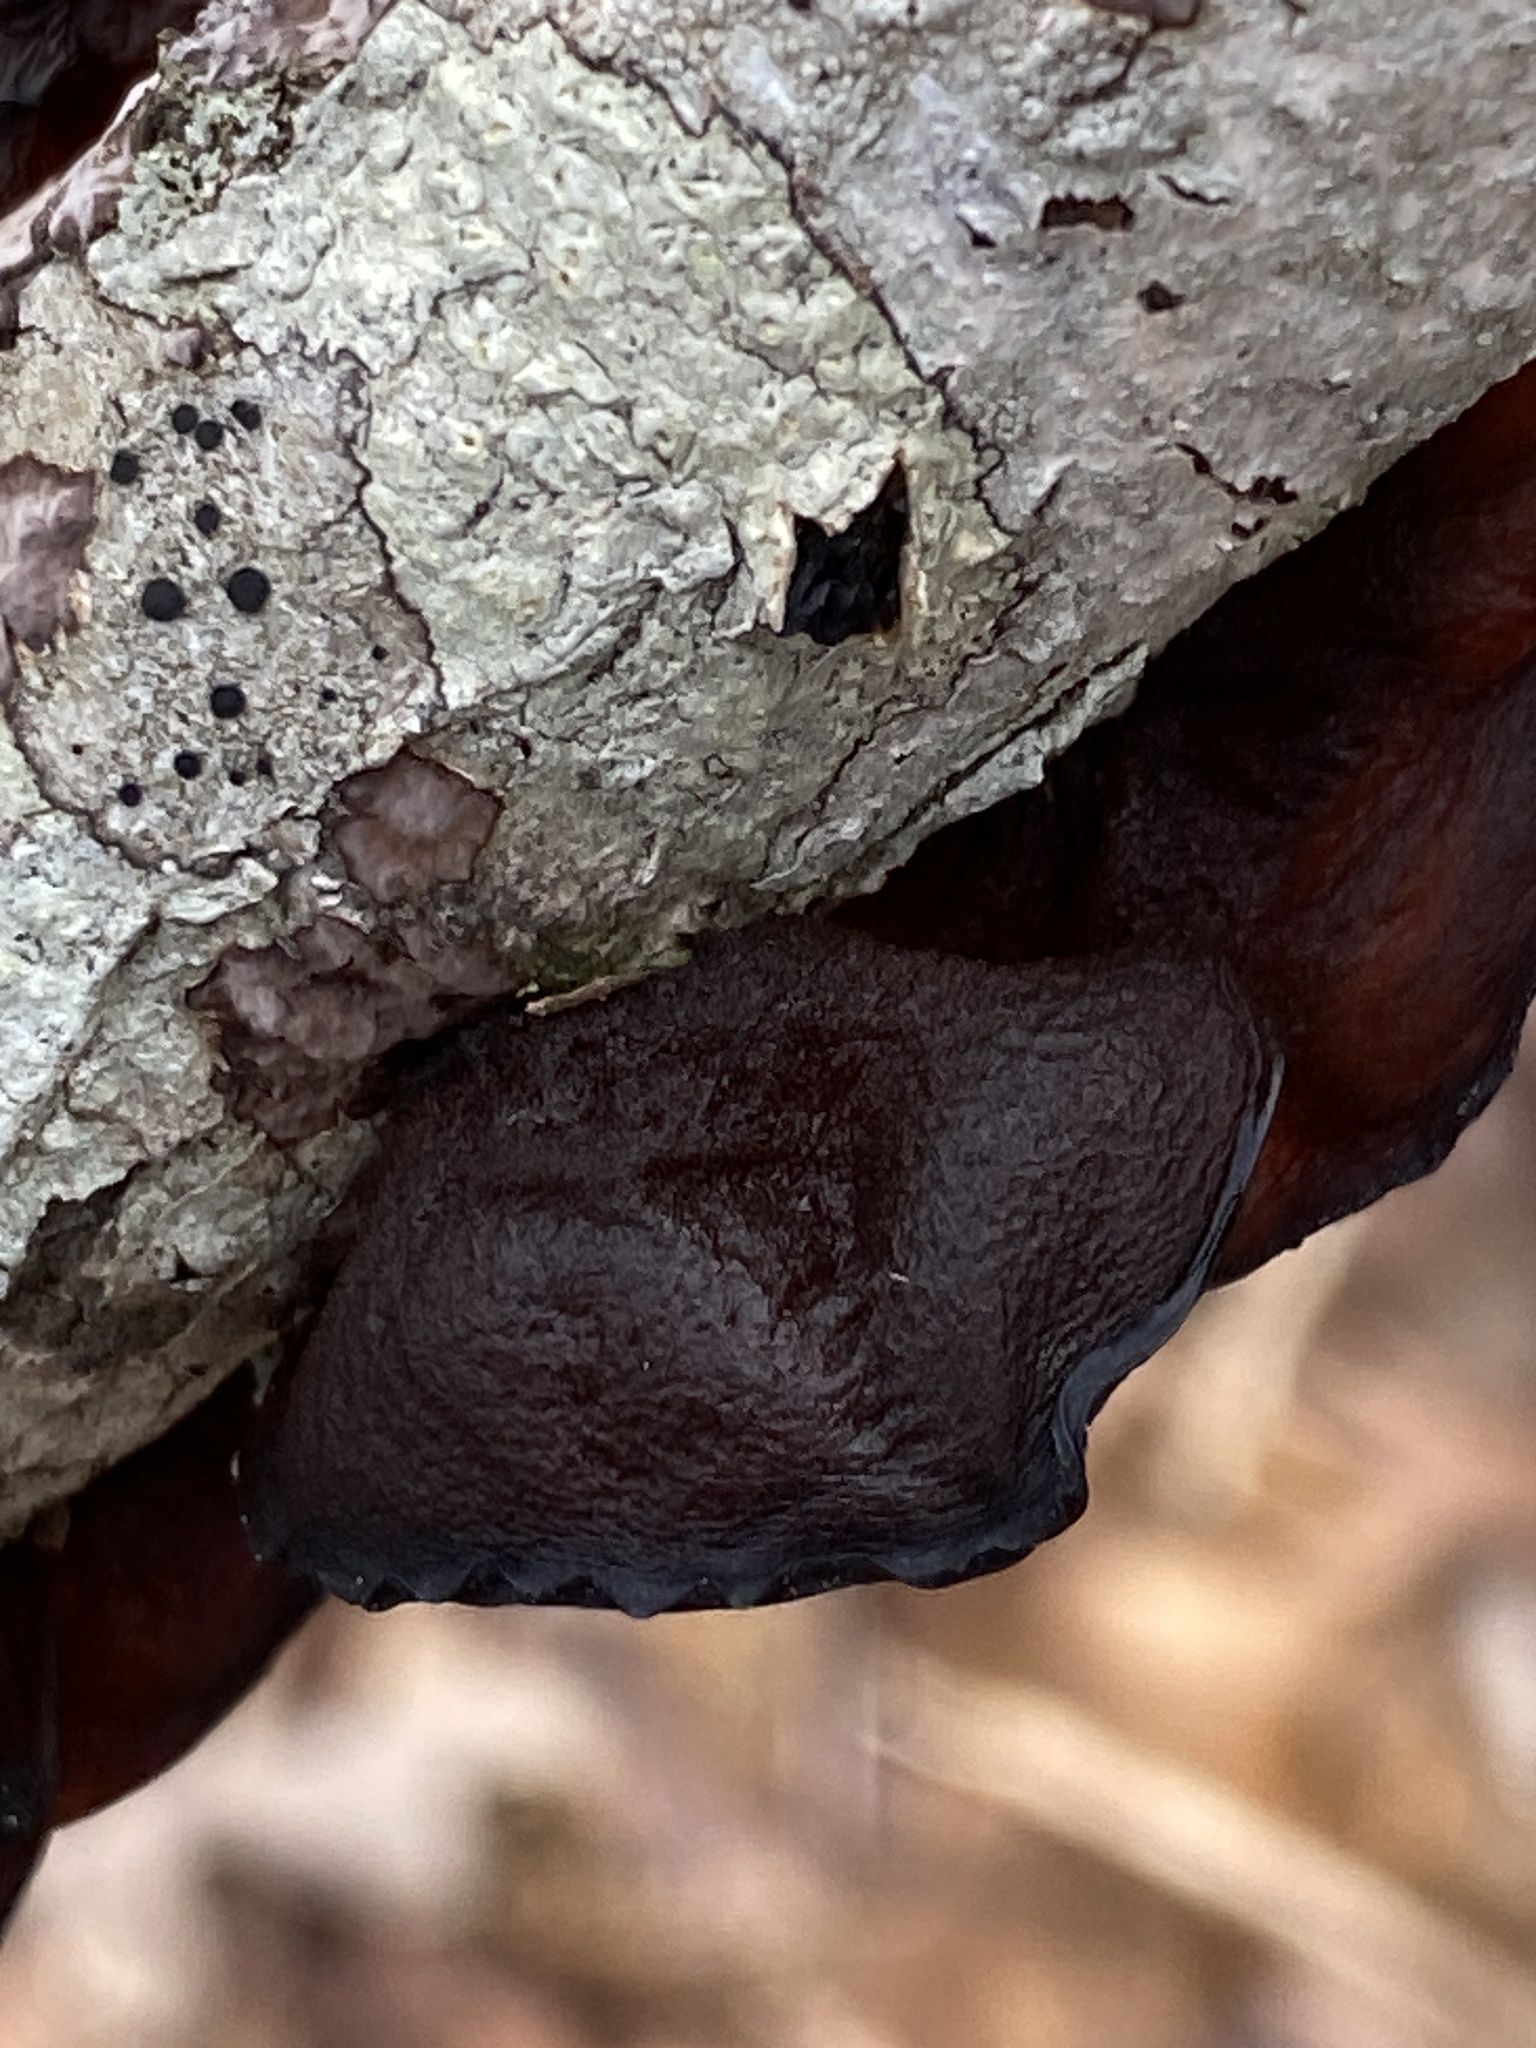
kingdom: Fungi
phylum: Basidiomycota
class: Agaricomycetes
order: Auriculariales
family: Auriculariaceae
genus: Exidia
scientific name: Exidia
